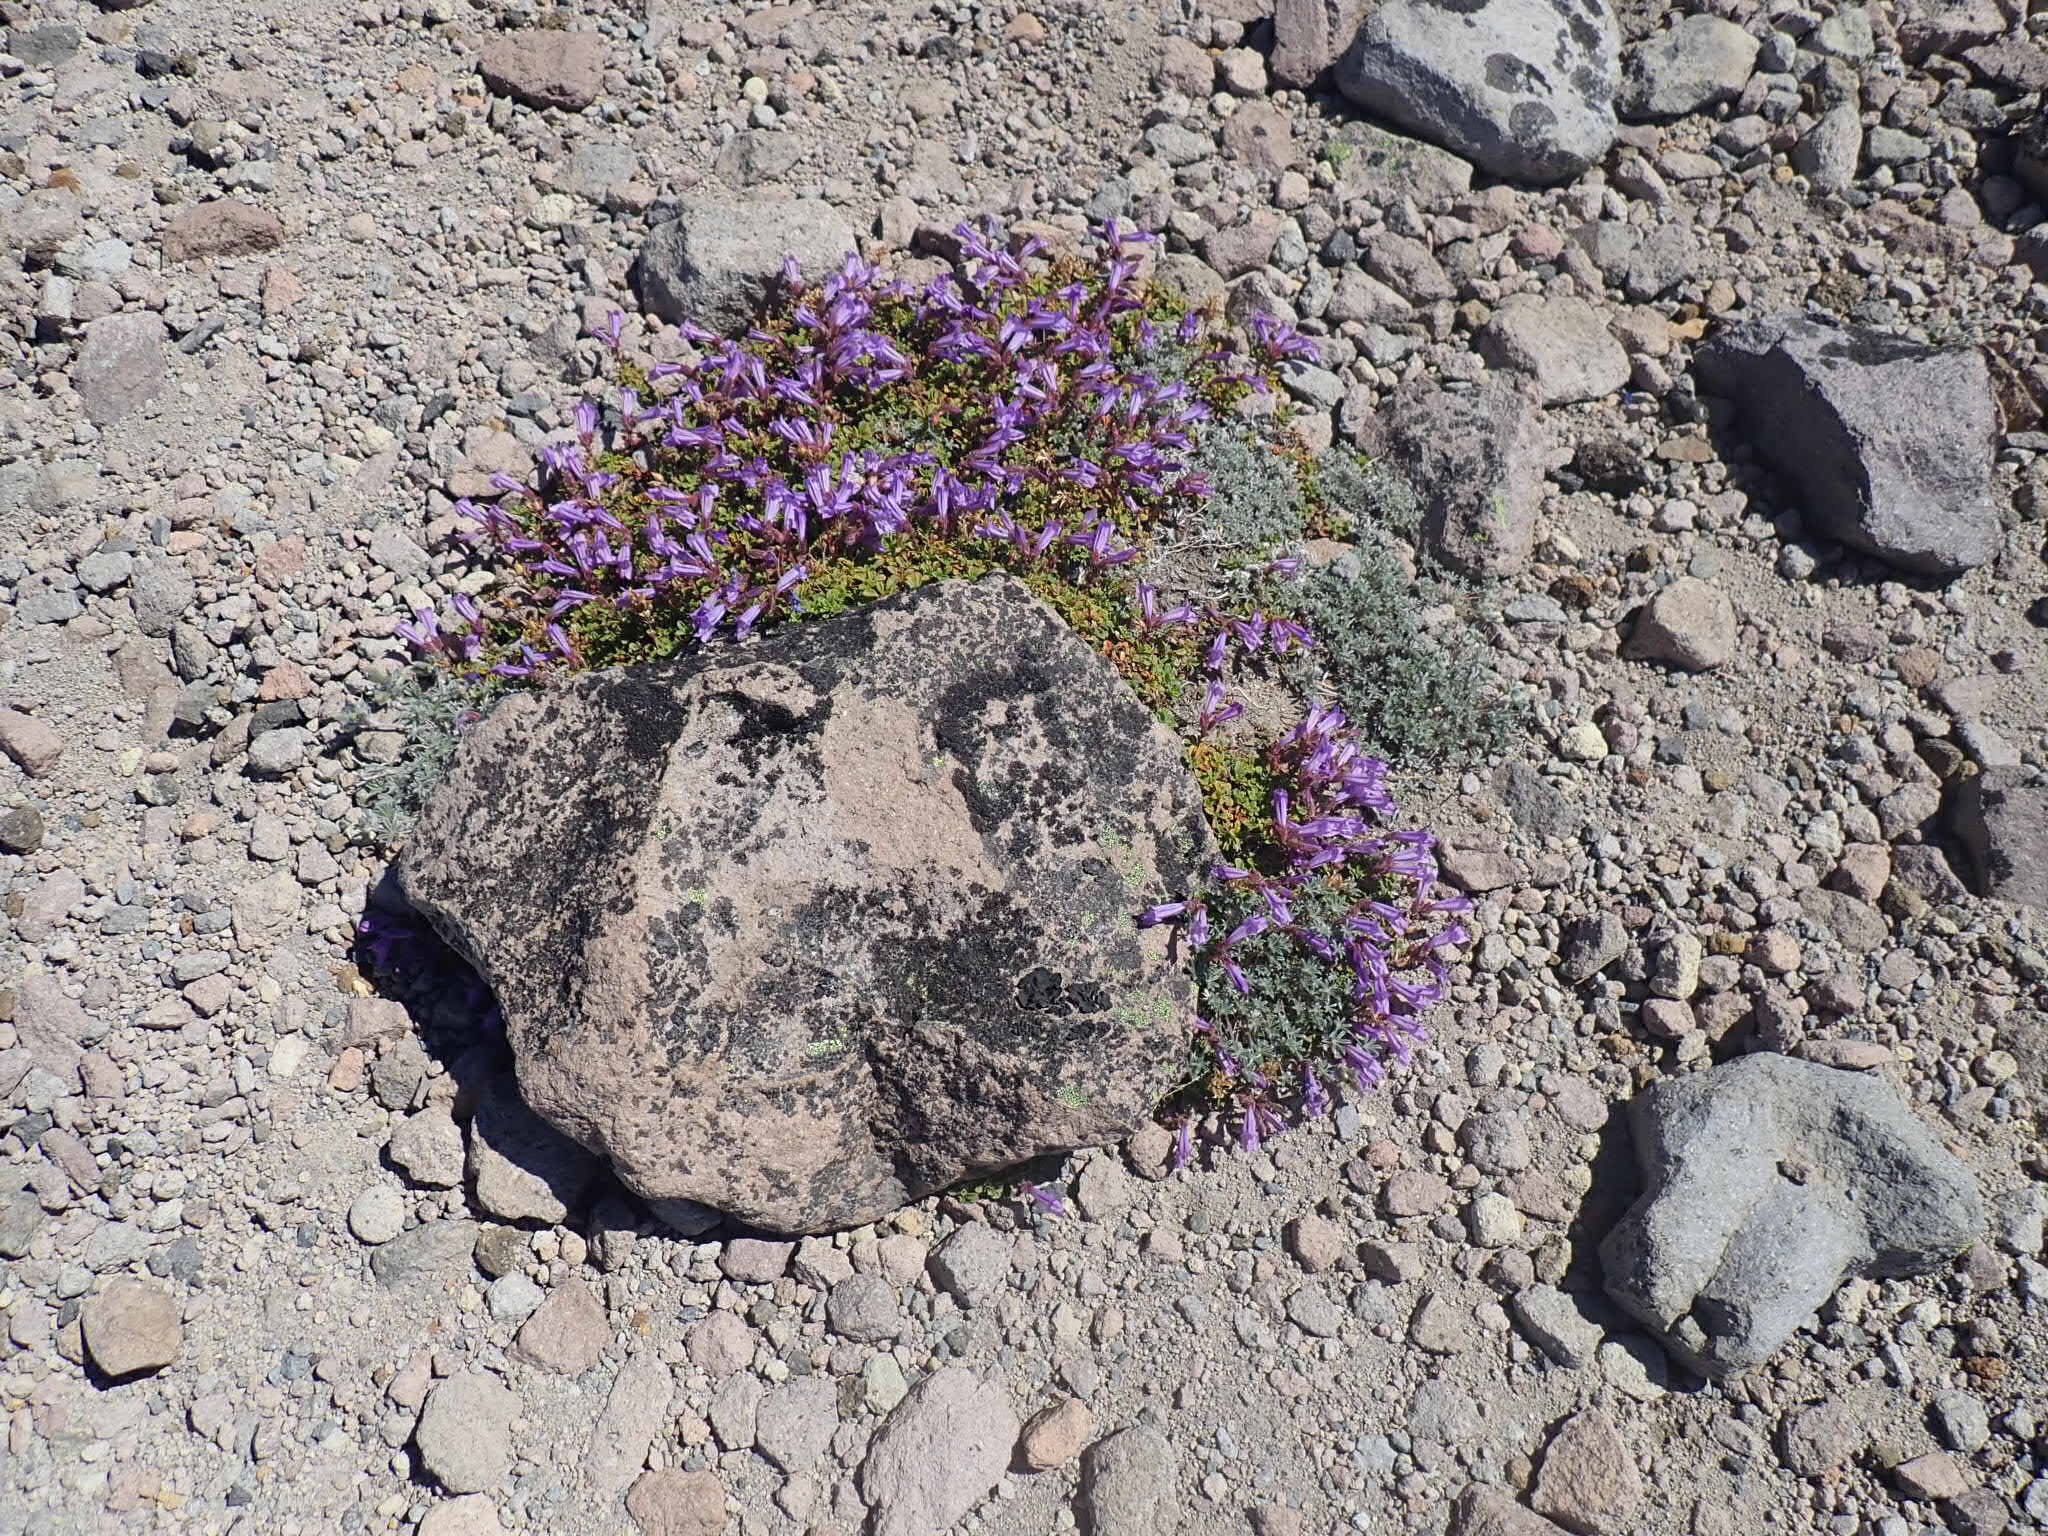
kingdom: Plantae
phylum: Tracheophyta
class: Magnoliopsida
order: Lamiales
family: Plantaginaceae
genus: Penstemon
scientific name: Penstemon davidsonii
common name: Davidson's penstemon
